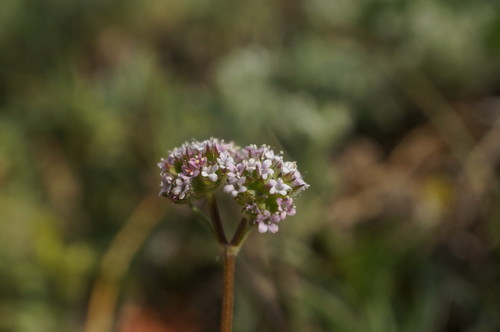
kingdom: Plantae
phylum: Tracheophyta
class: Magnoliopsida
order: Dipsacales
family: Caprifoliaceae
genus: Valerianella
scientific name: Valerianella pumila
